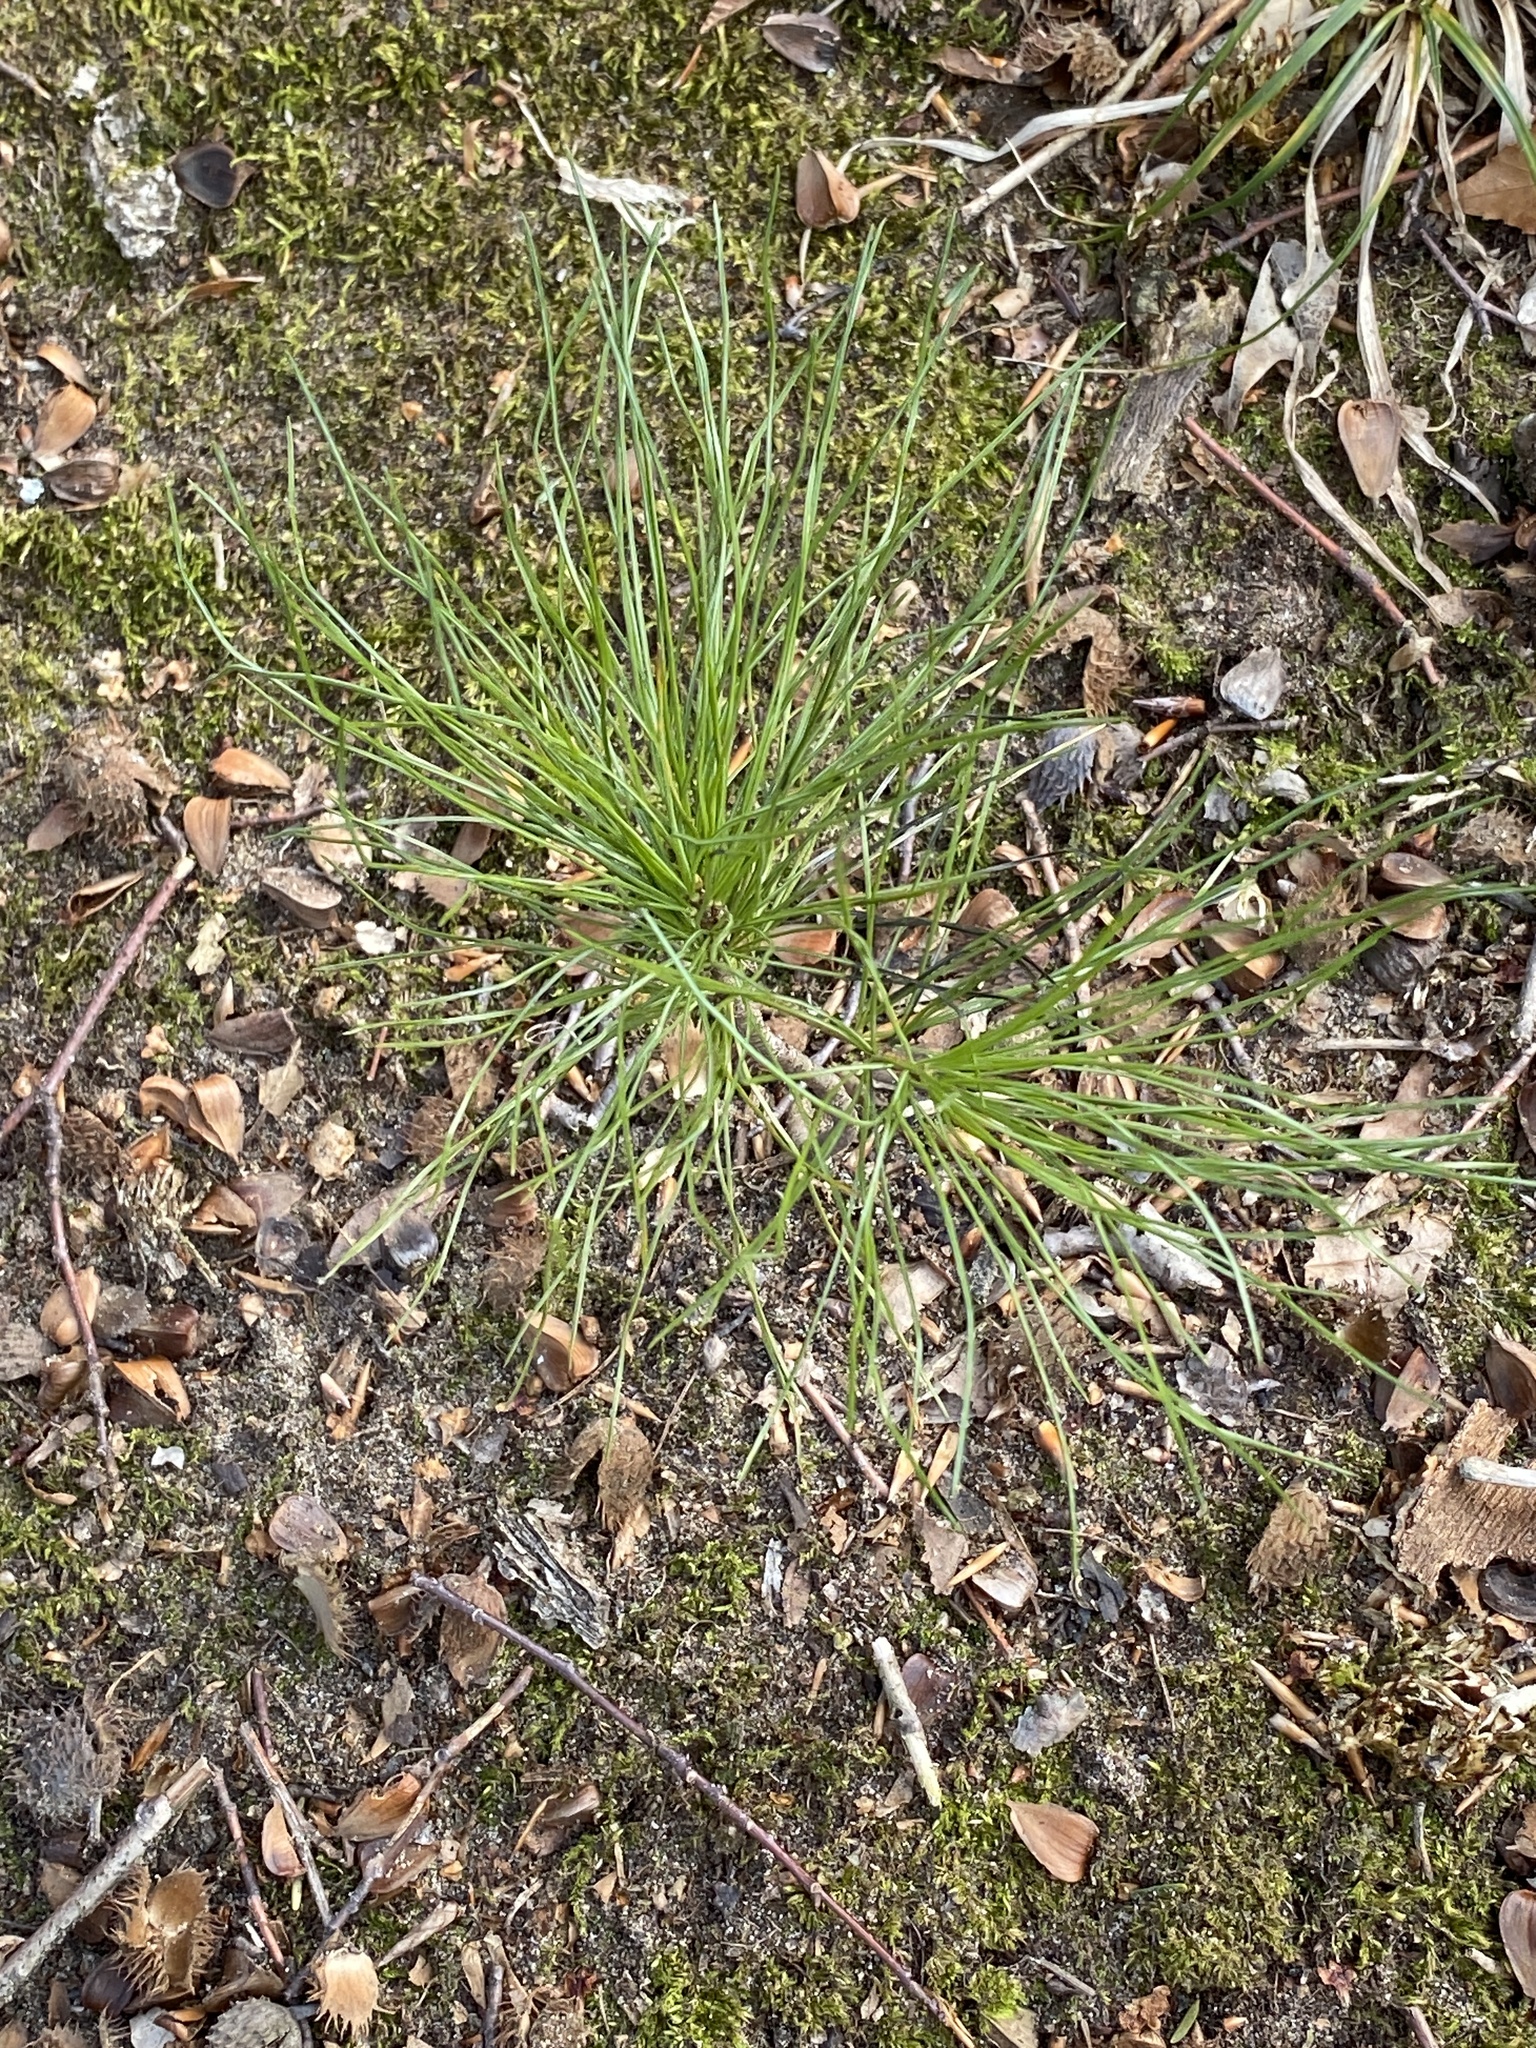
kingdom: Plantae
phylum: Tracheophyta
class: Pinopsida
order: Pinales
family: Pinaceae
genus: Pinus
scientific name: Pinus strobus
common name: Weymouth pine
